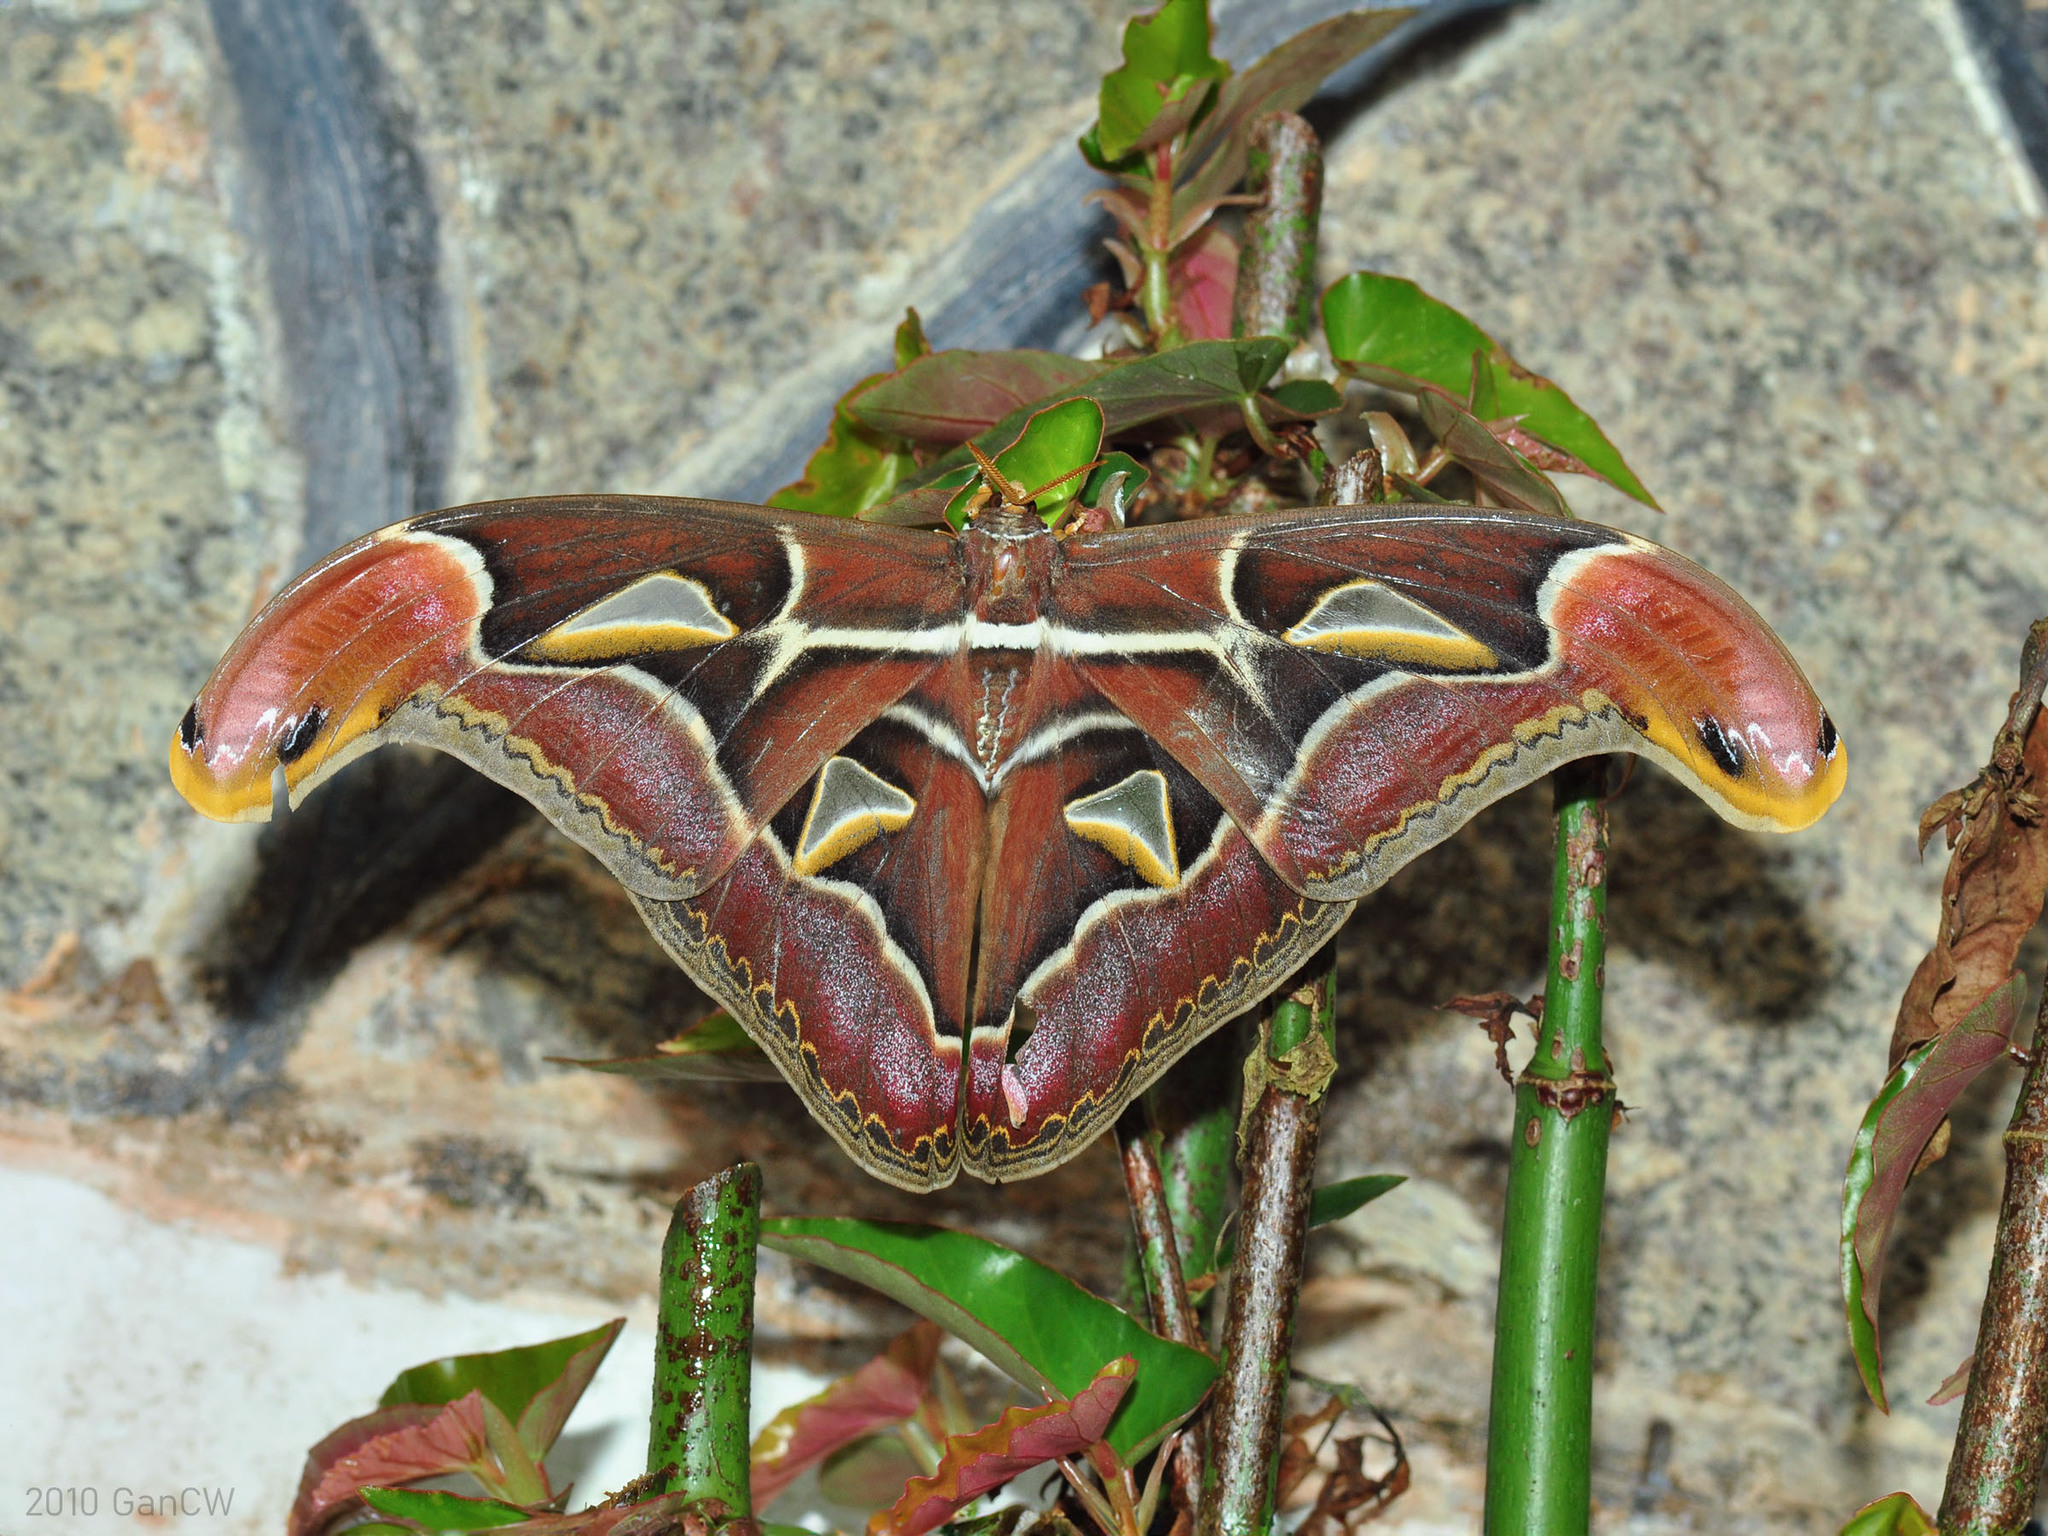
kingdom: Animalia
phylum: Arthropoda
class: Insecta
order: Lepidoptera
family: Saturniidae
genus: Archaeoattacus
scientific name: Archaeoattacus edwardsii
